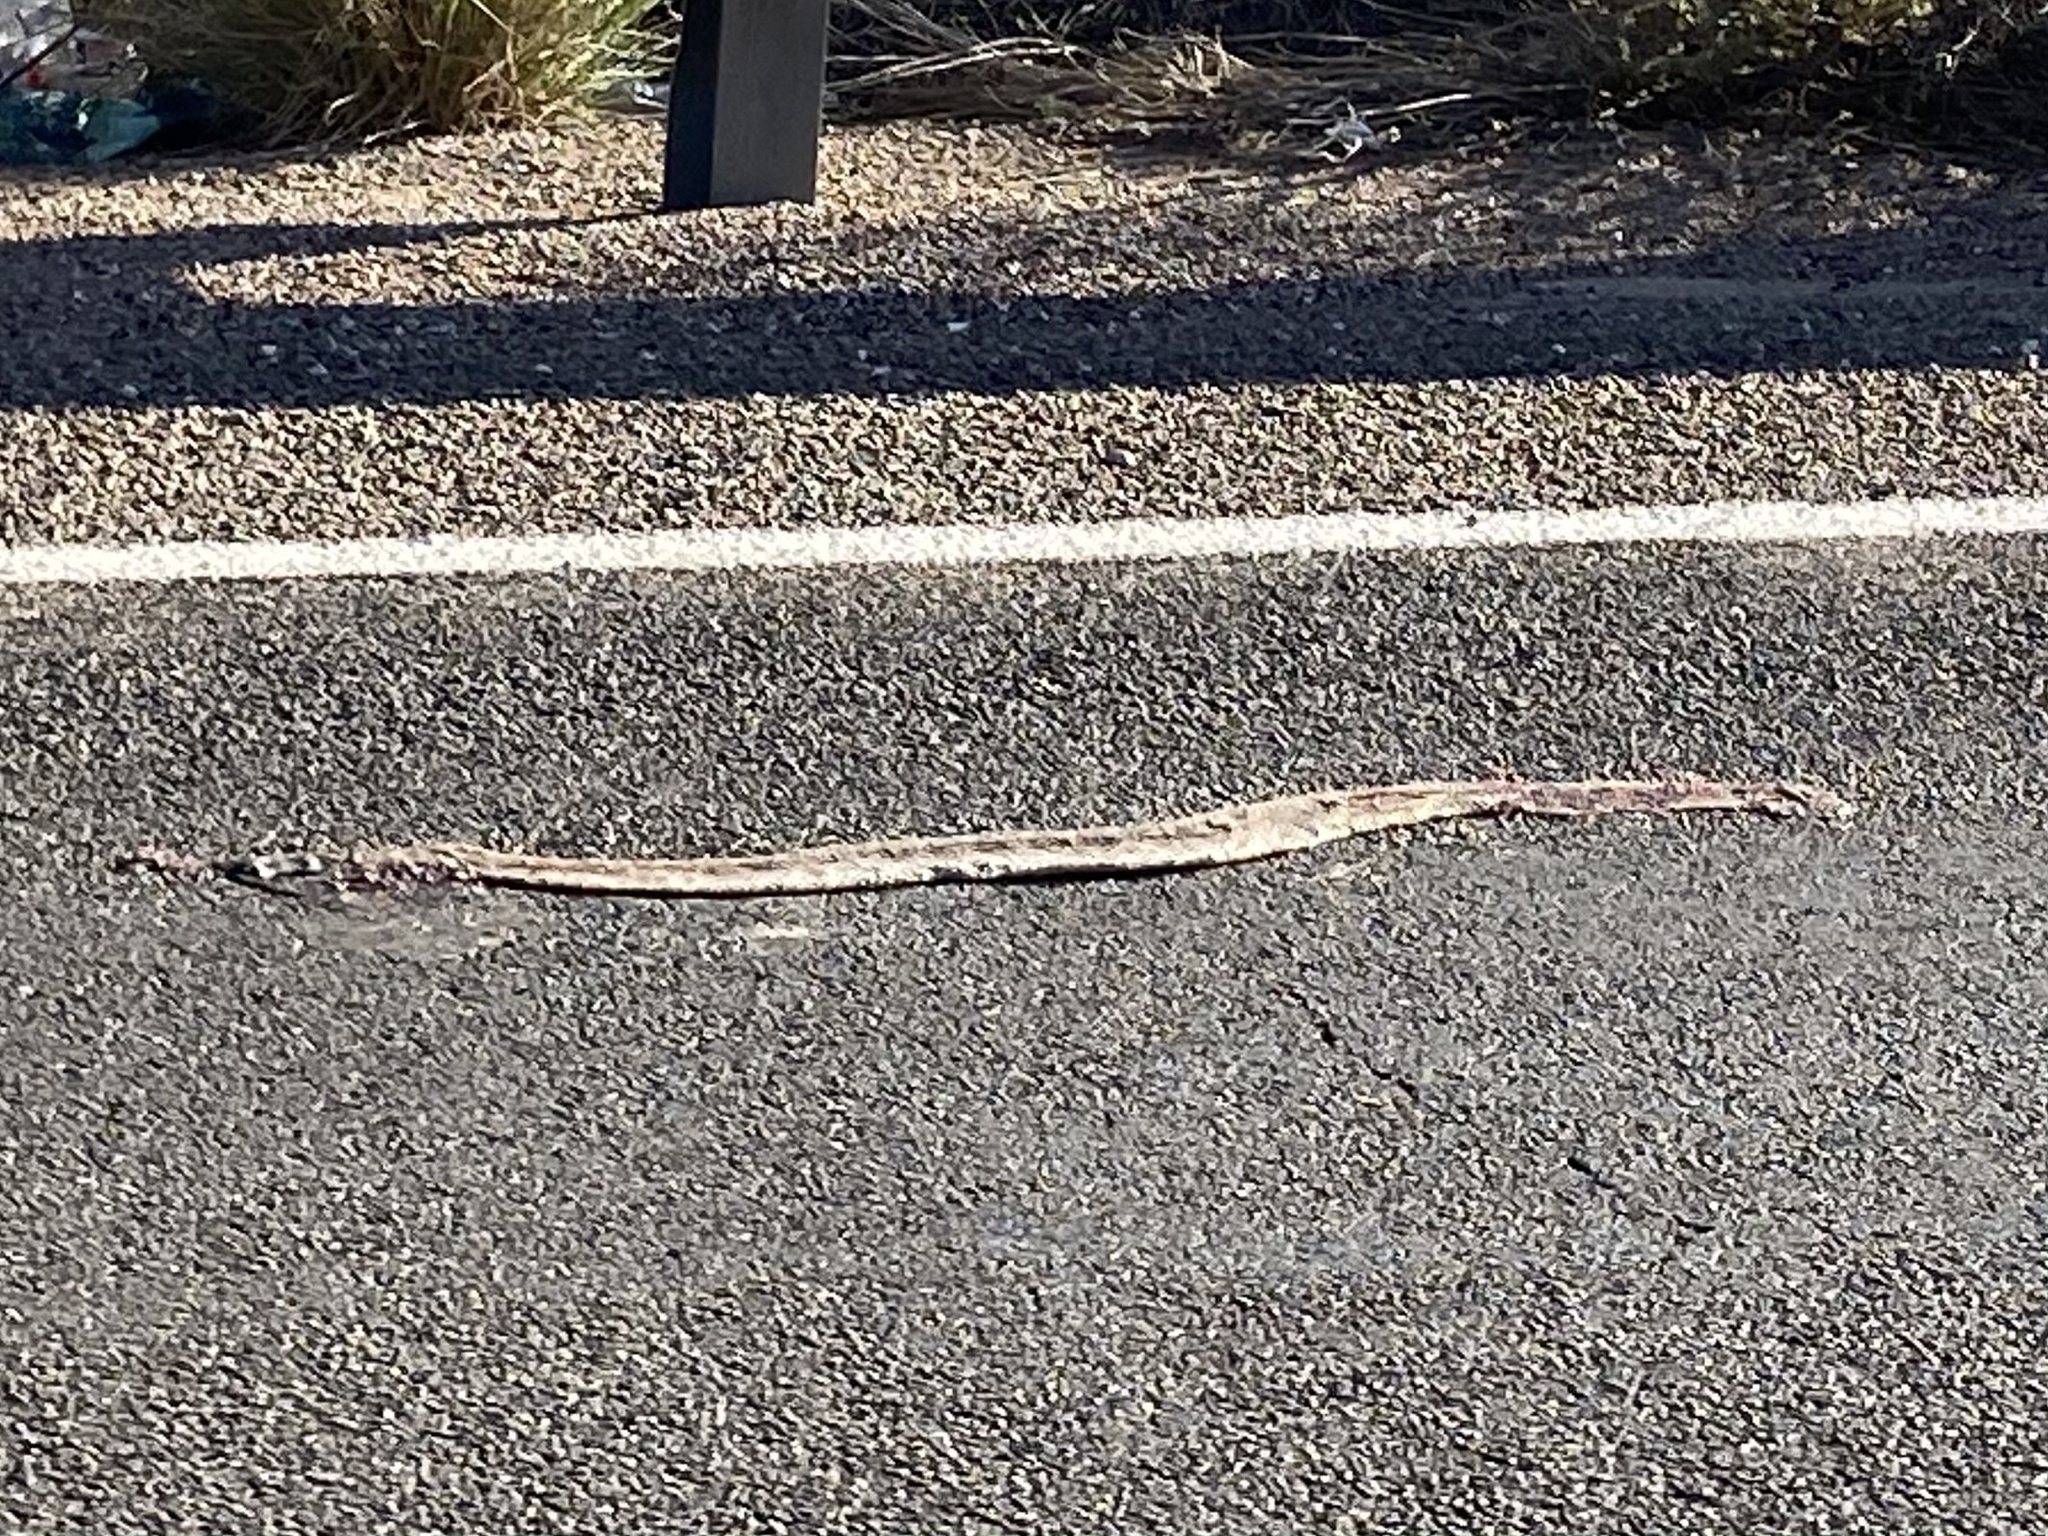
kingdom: Animalia
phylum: Chordata
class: Squamata
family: Viperidae
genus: Crotalus
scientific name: Crotalus atrox
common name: Western diamond-backed rattlesnake
